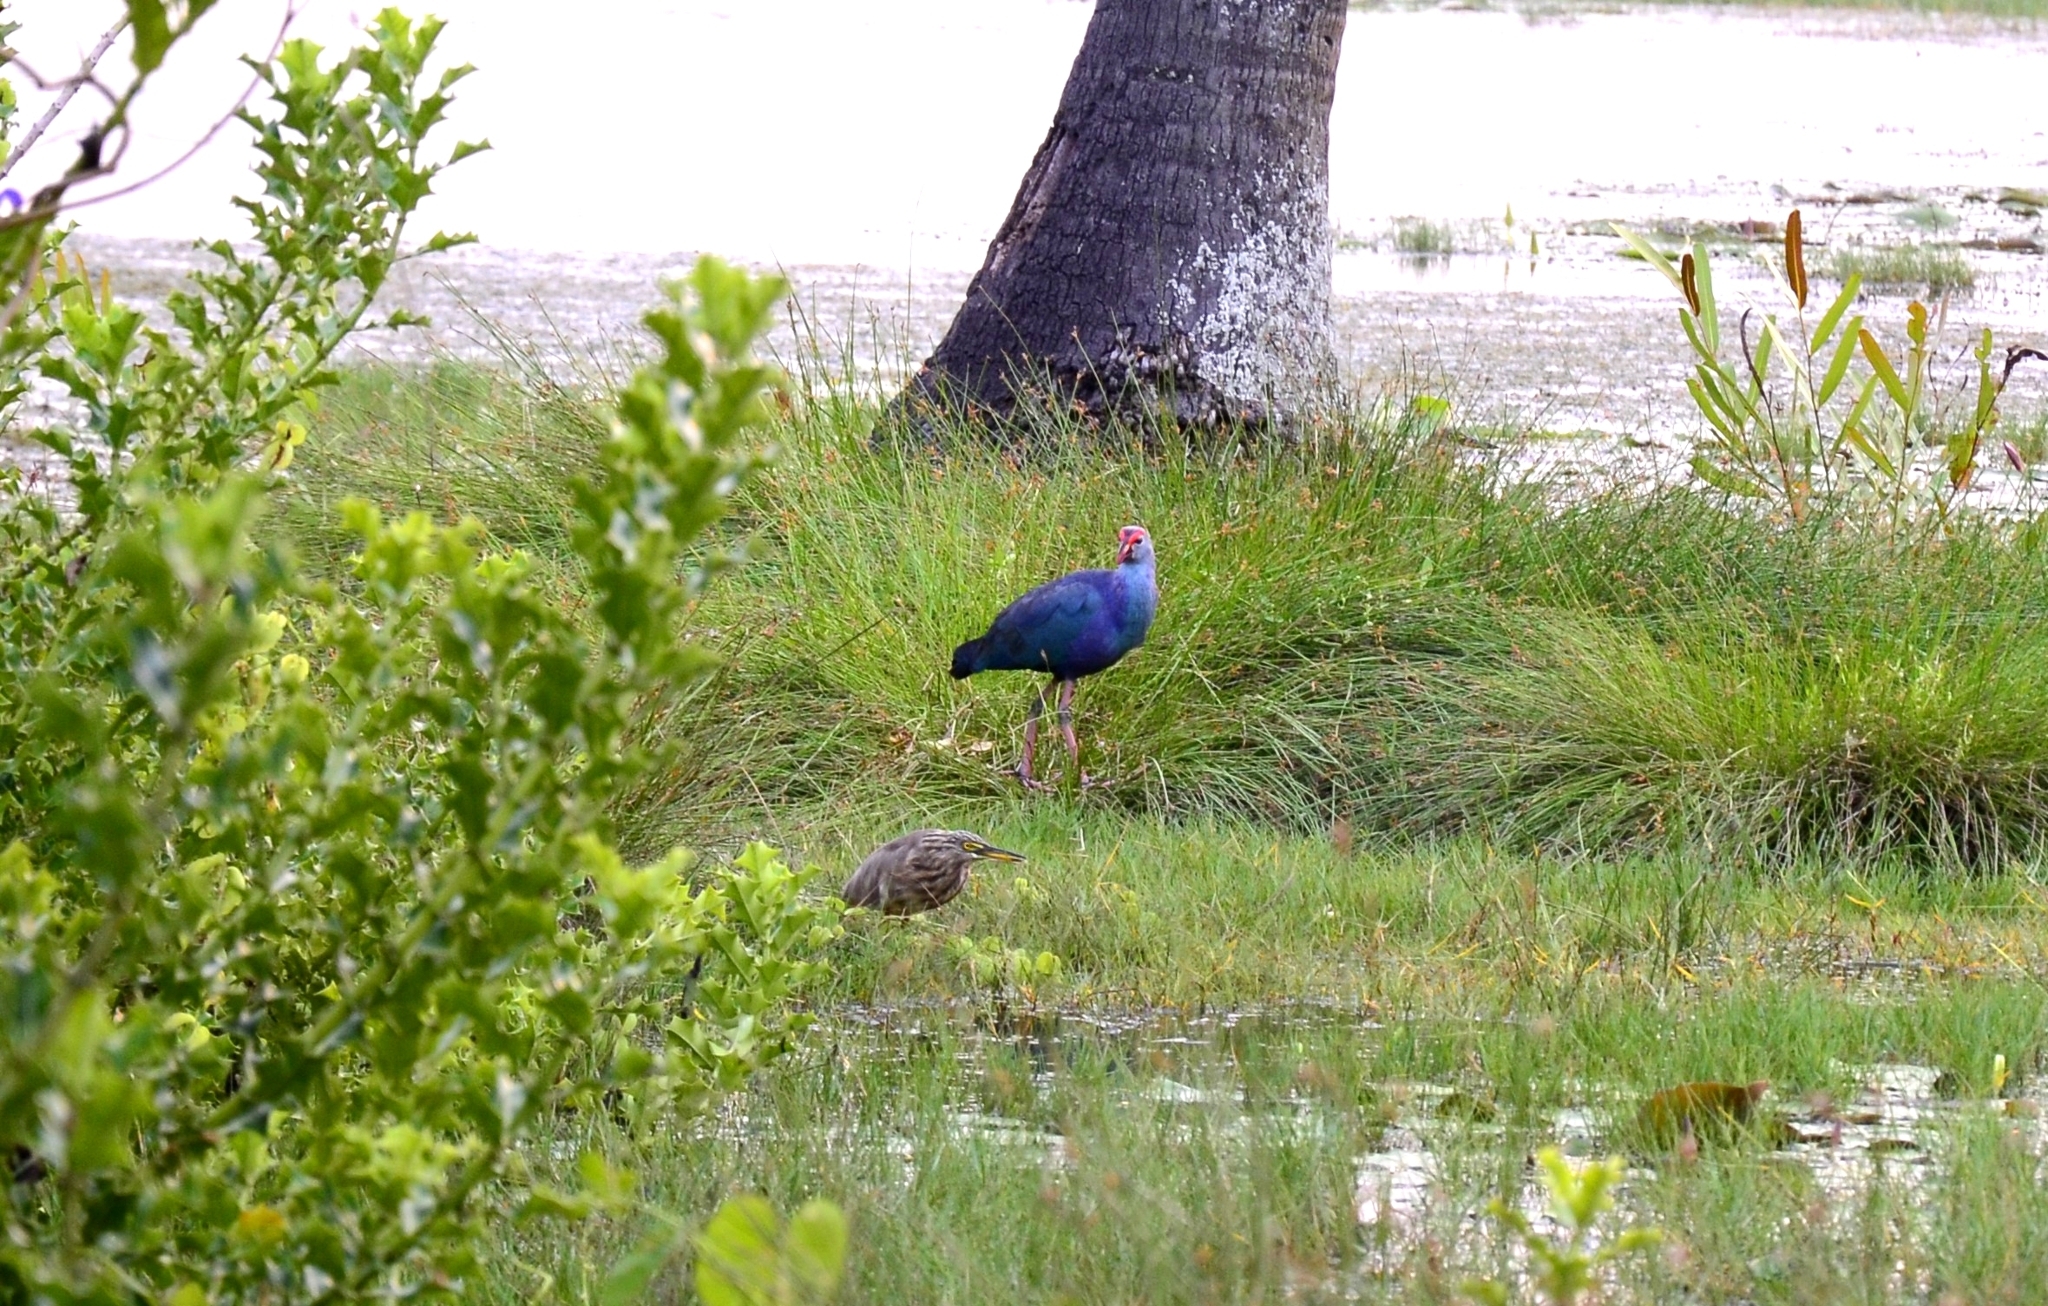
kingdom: Animalia
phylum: Chordata
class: Aves
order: Gruiformes
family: Rallidae
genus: Porphyrio
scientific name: Porphyrio porphyrio
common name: Purple swamphen
